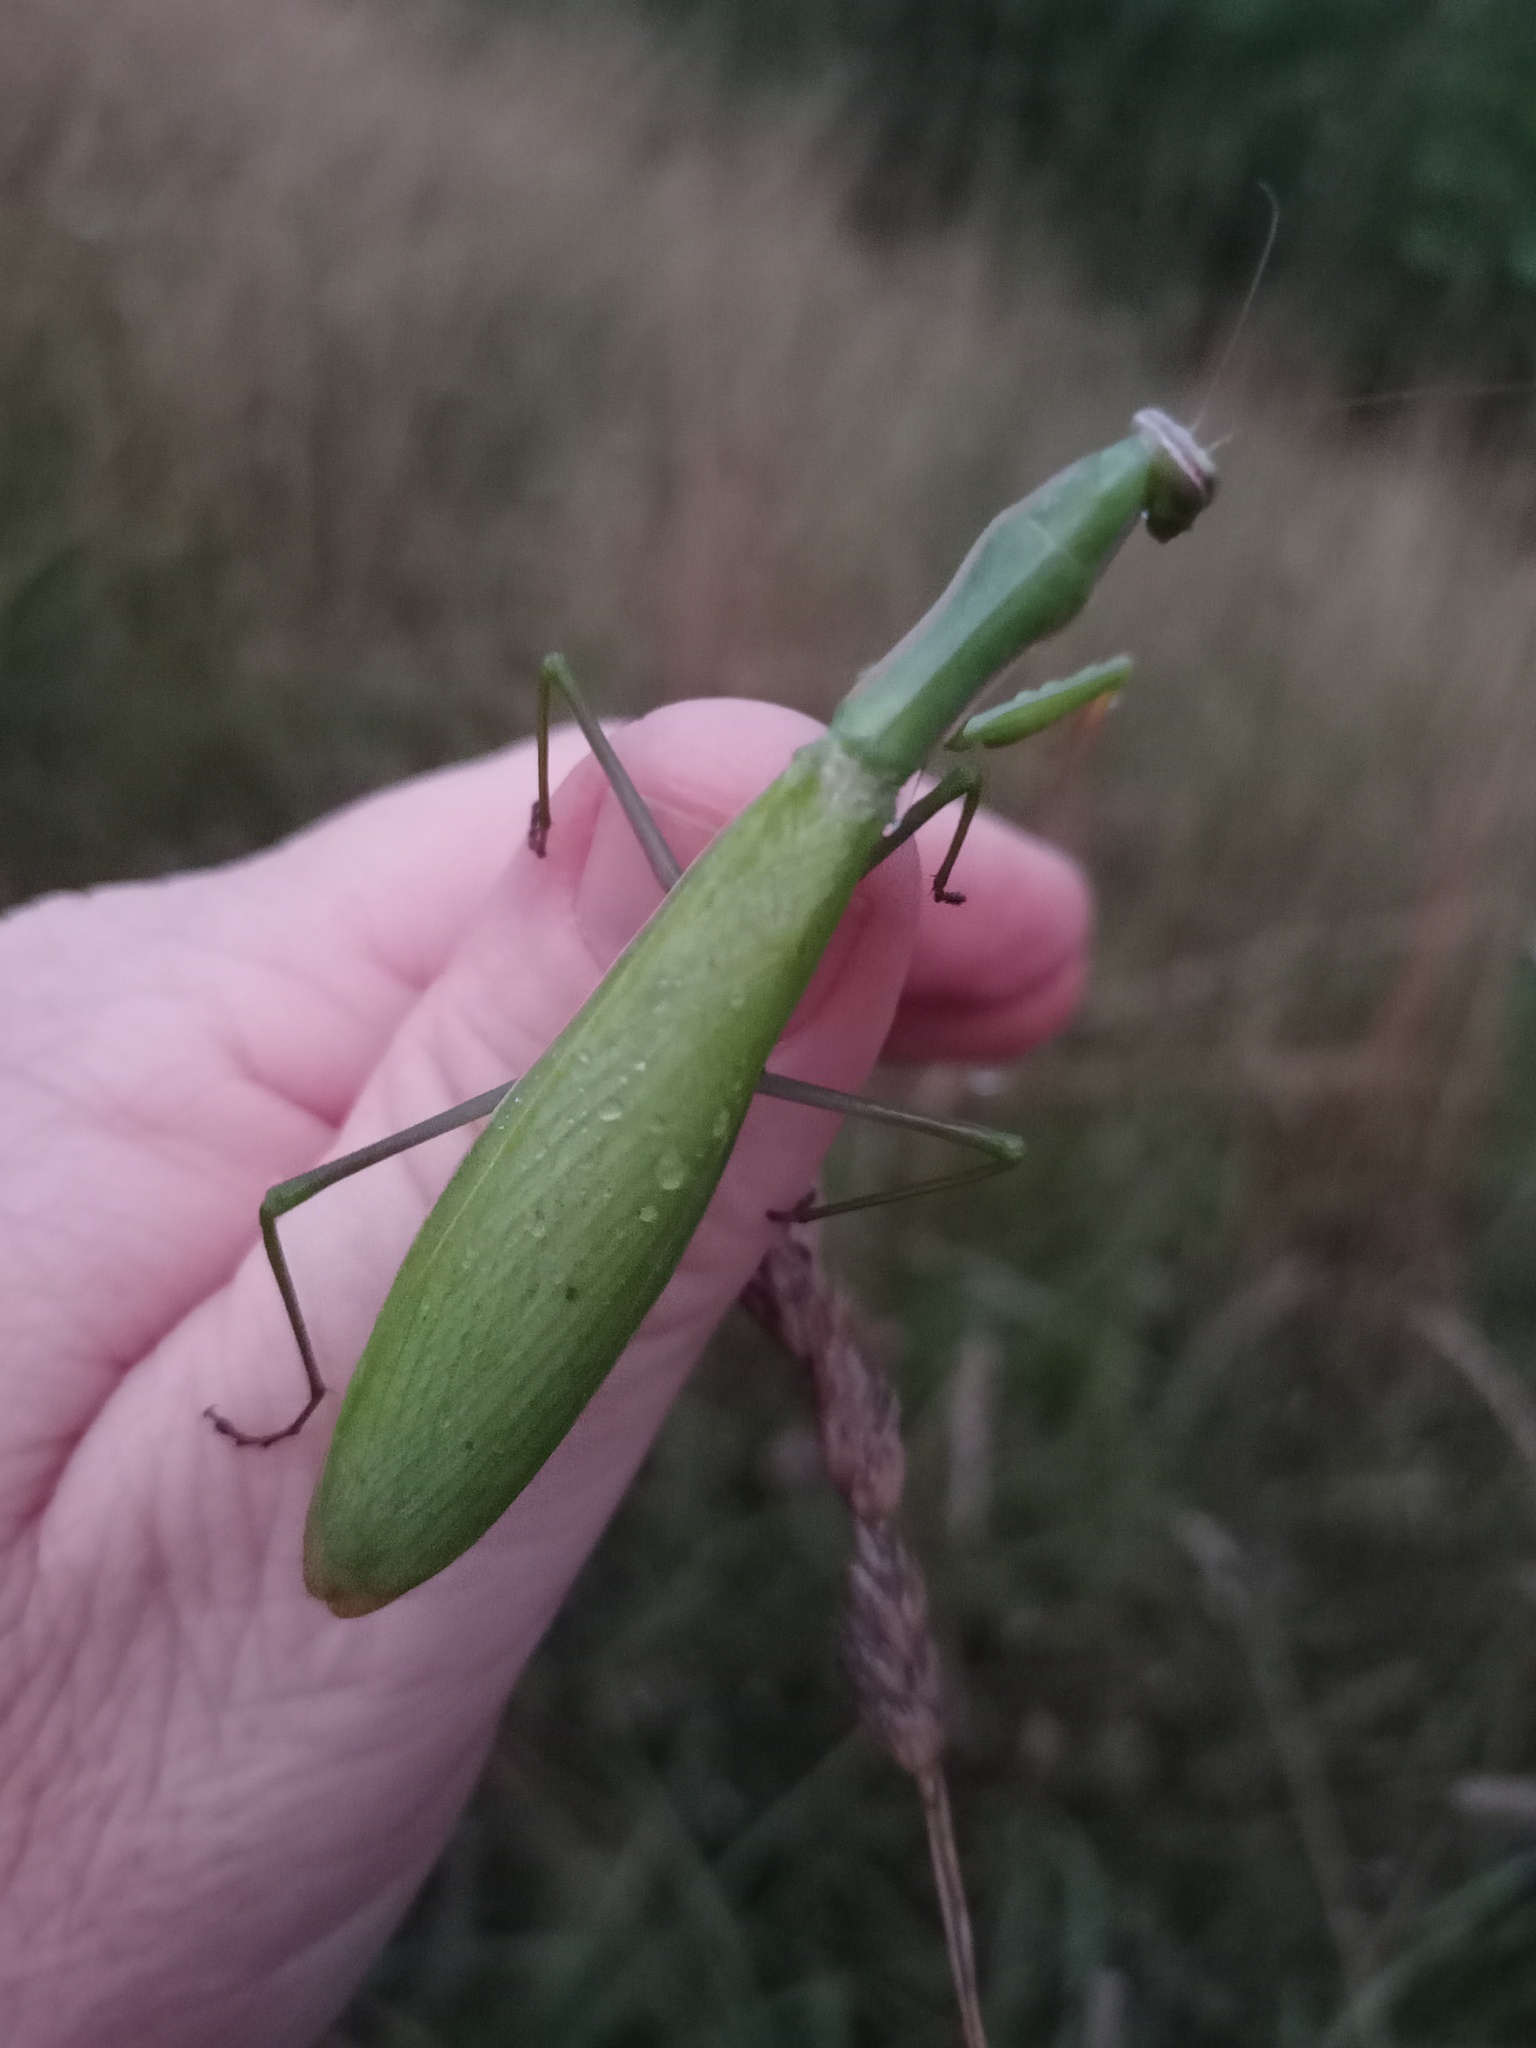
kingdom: Animalia
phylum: Arthropoda
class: Insecta
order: Mantodea
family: Mantidae
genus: Mantis
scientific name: Mantis religiosa
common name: Praying mantis
